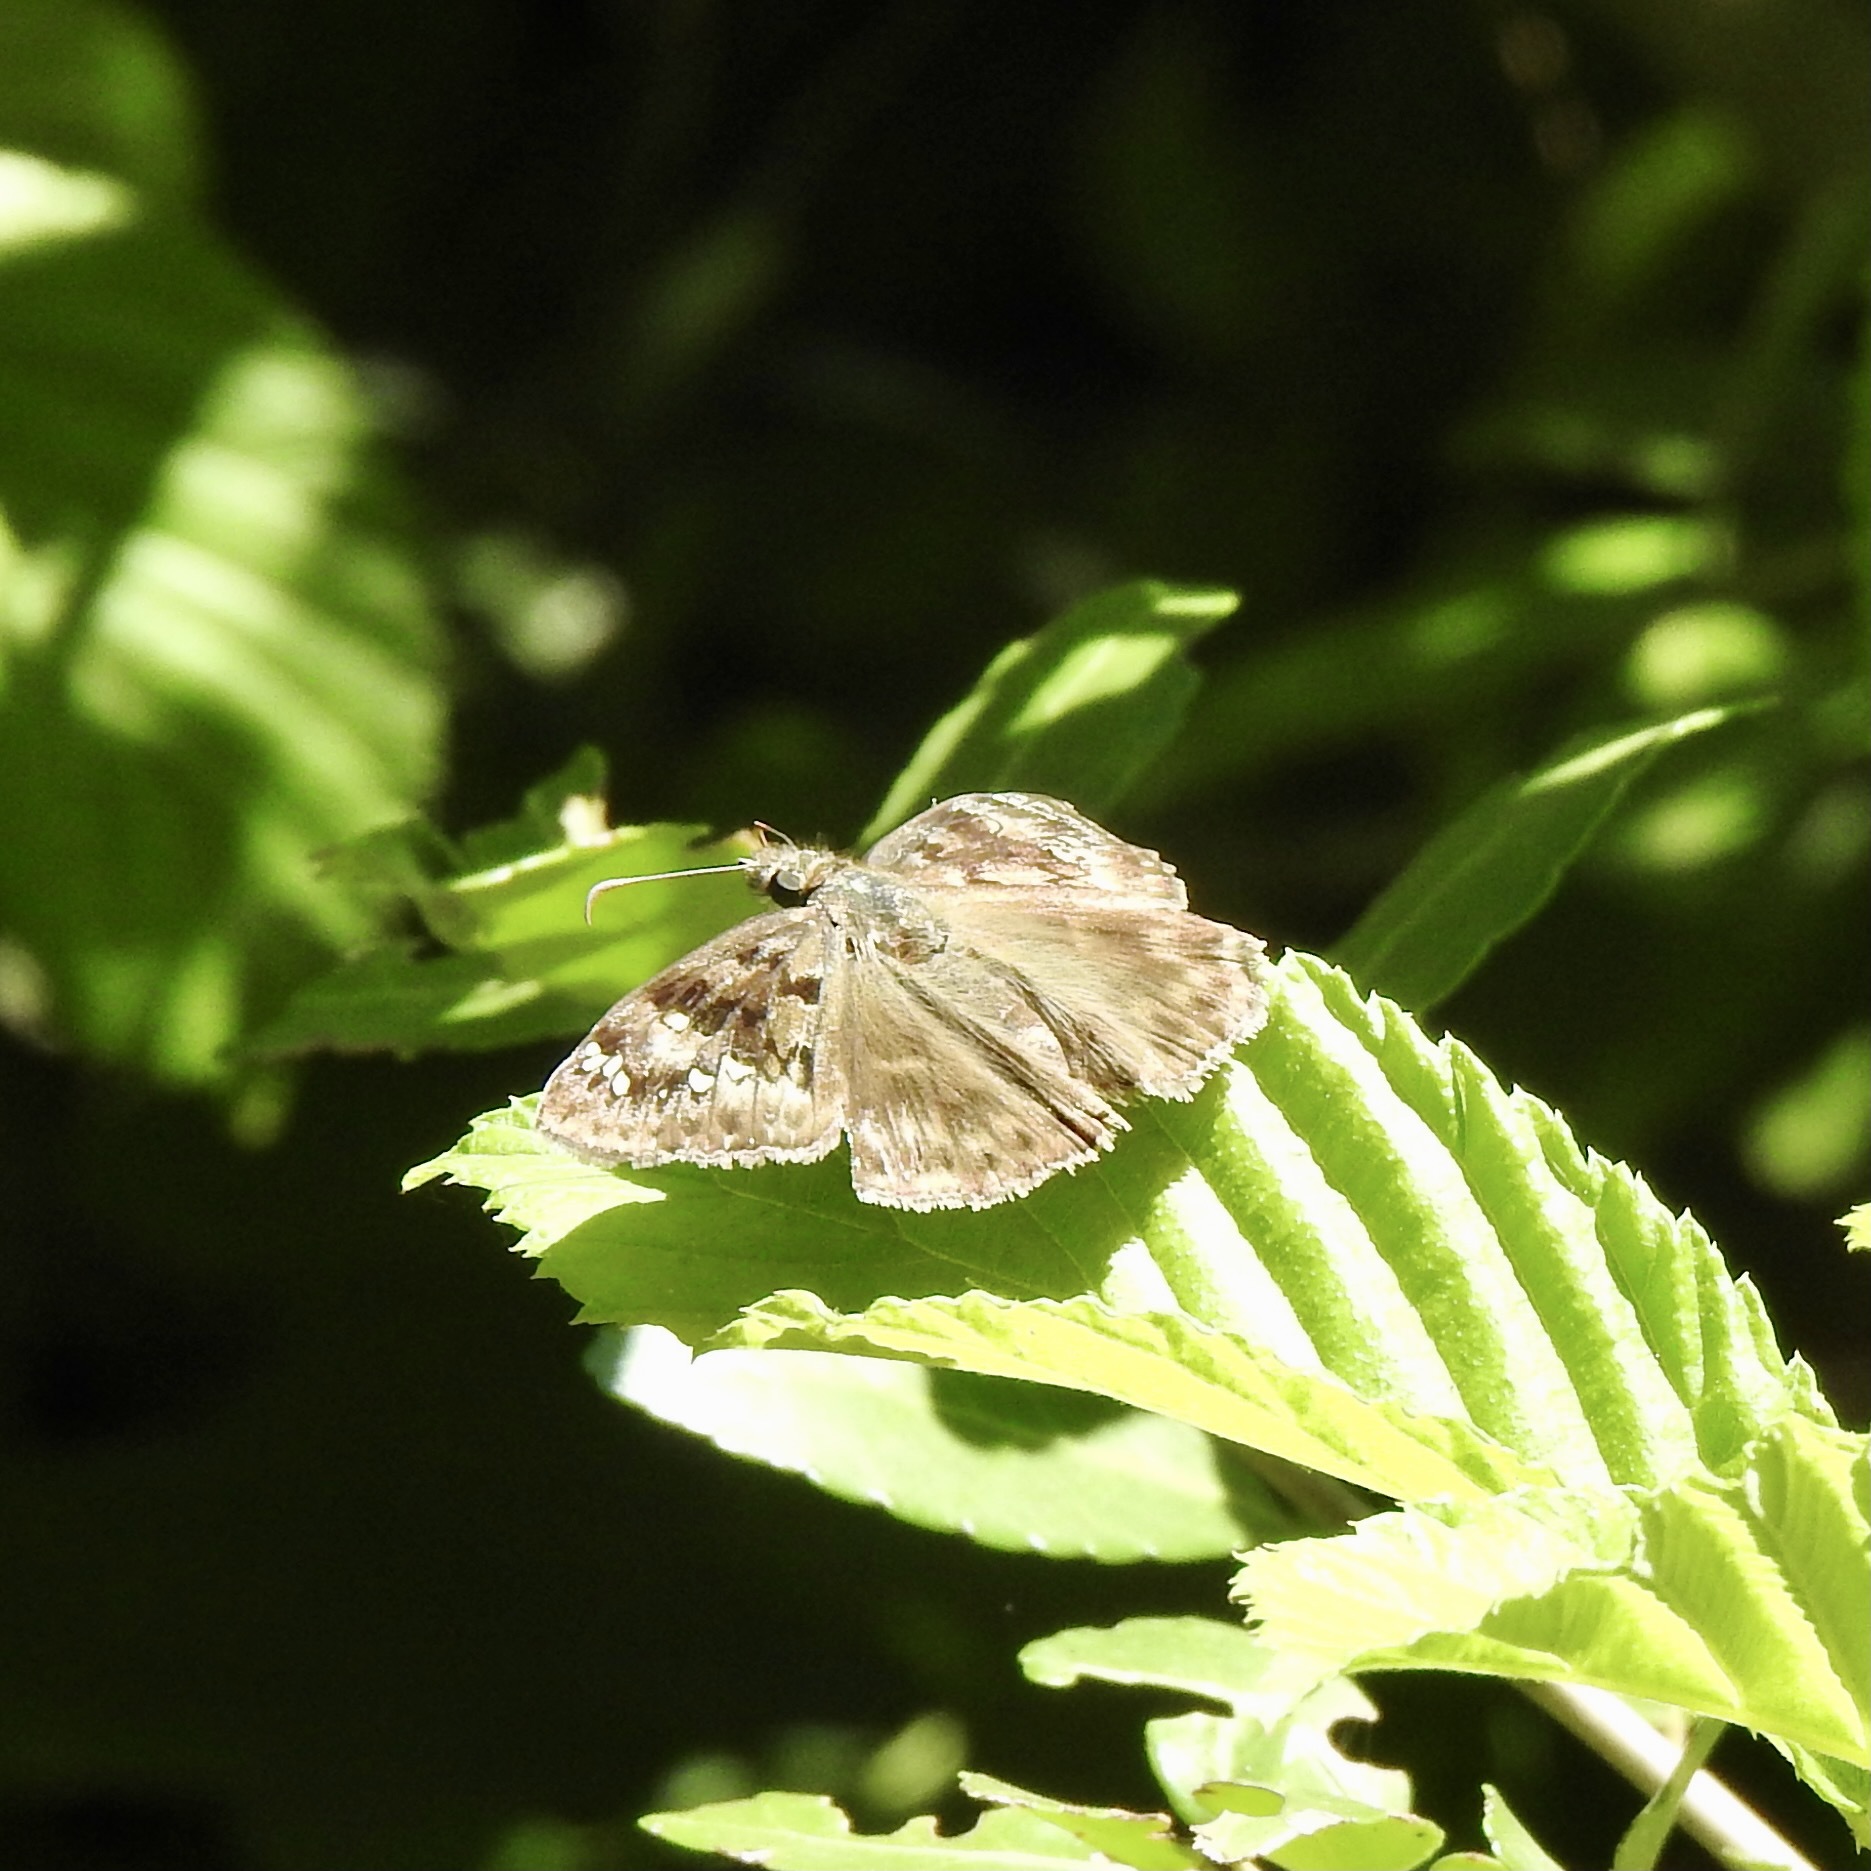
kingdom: Animalia
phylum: Arthropoda
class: Insecta
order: Lepidoptera
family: Hesperiidae
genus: Erynnis
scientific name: Erynnis horatius
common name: Horace's duskywing
